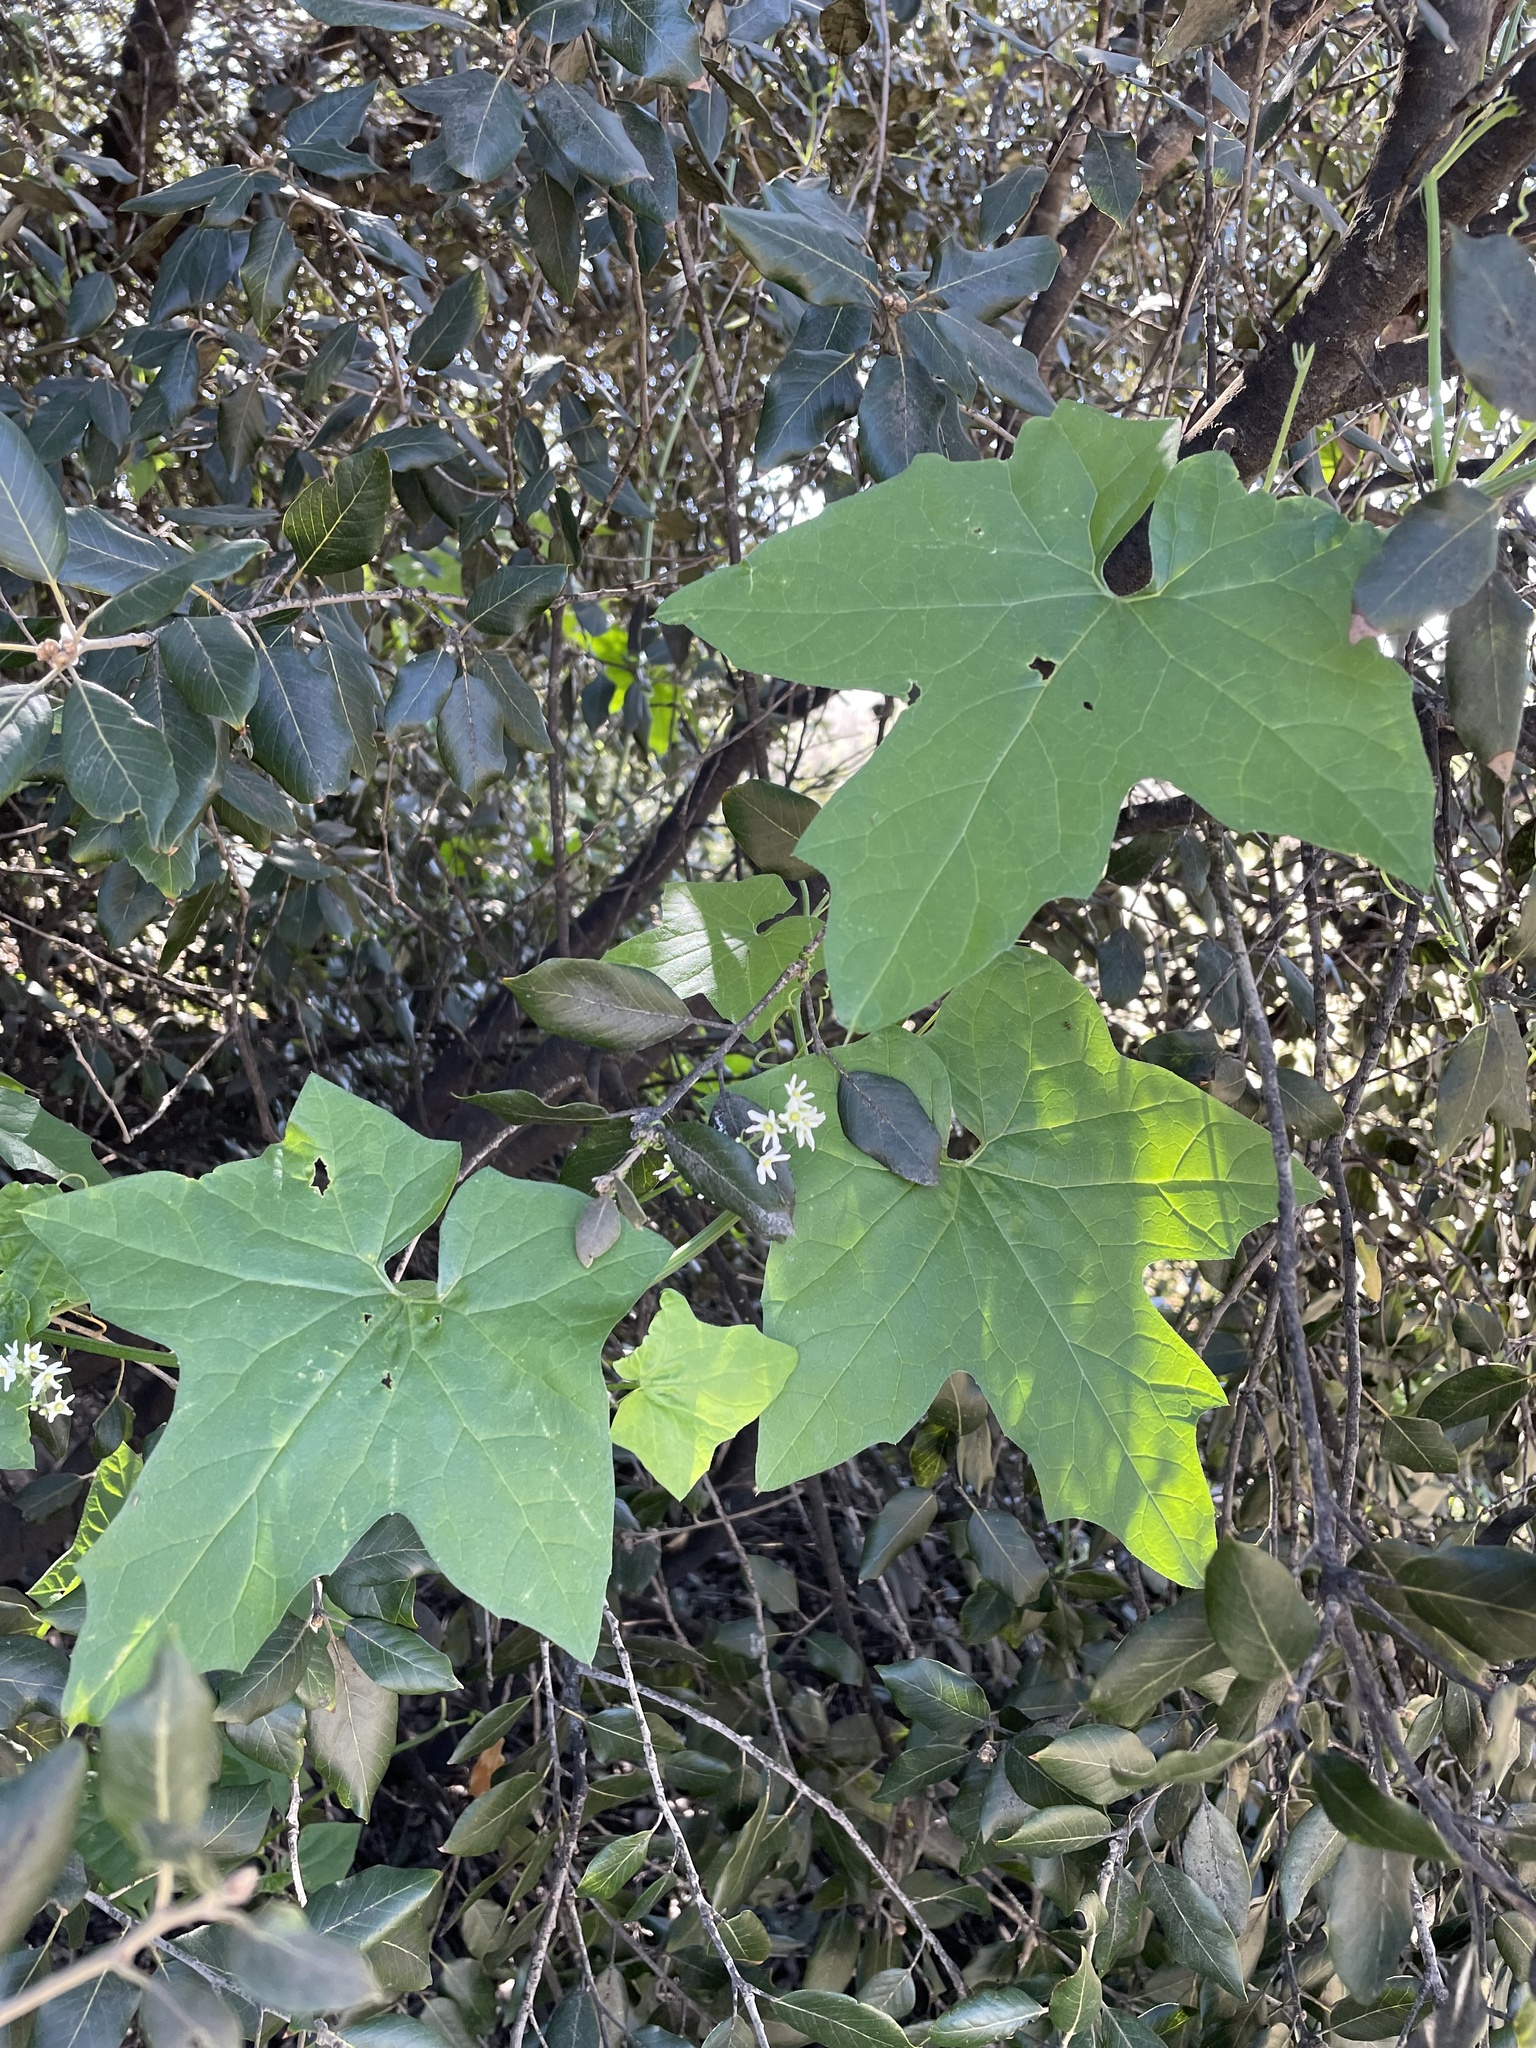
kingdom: Plantae
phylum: Tracheophyta
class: Magnoliopsida
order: Cucurbitales
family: Cucurbitaceae
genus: Marah
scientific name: Marah fabacea
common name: California manroot
